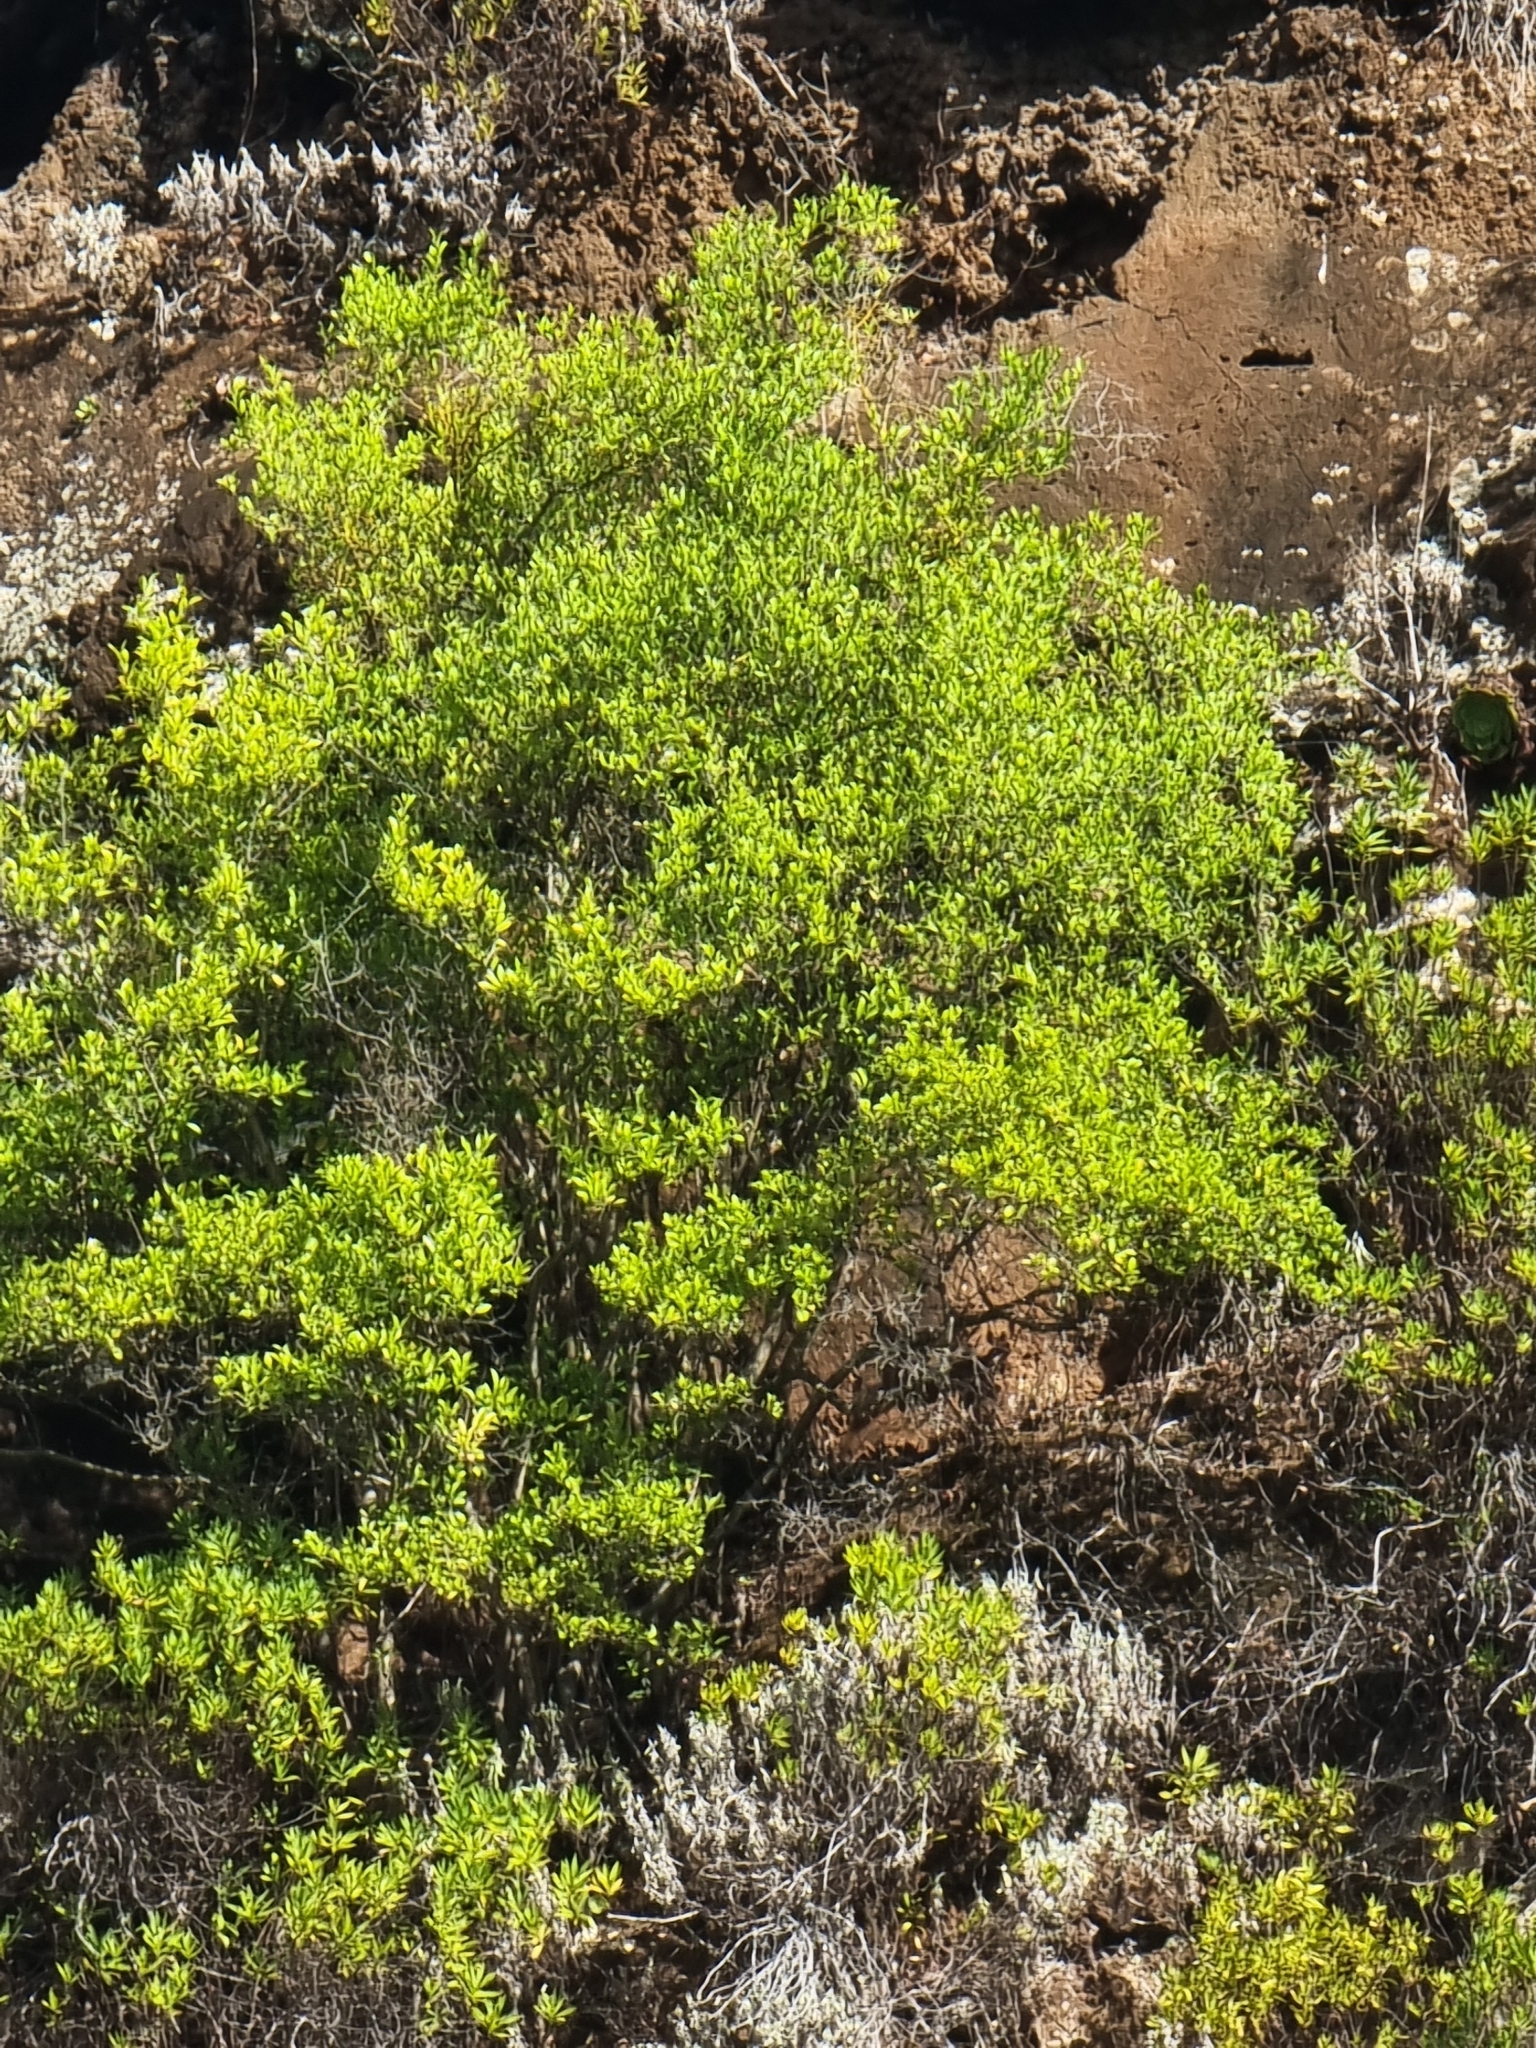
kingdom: Plantae
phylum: Tracheophyta
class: Magnoliopsida
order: Celastrales
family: Celastraceae
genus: Gymnosporia
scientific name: Gymnosporia dryandri
